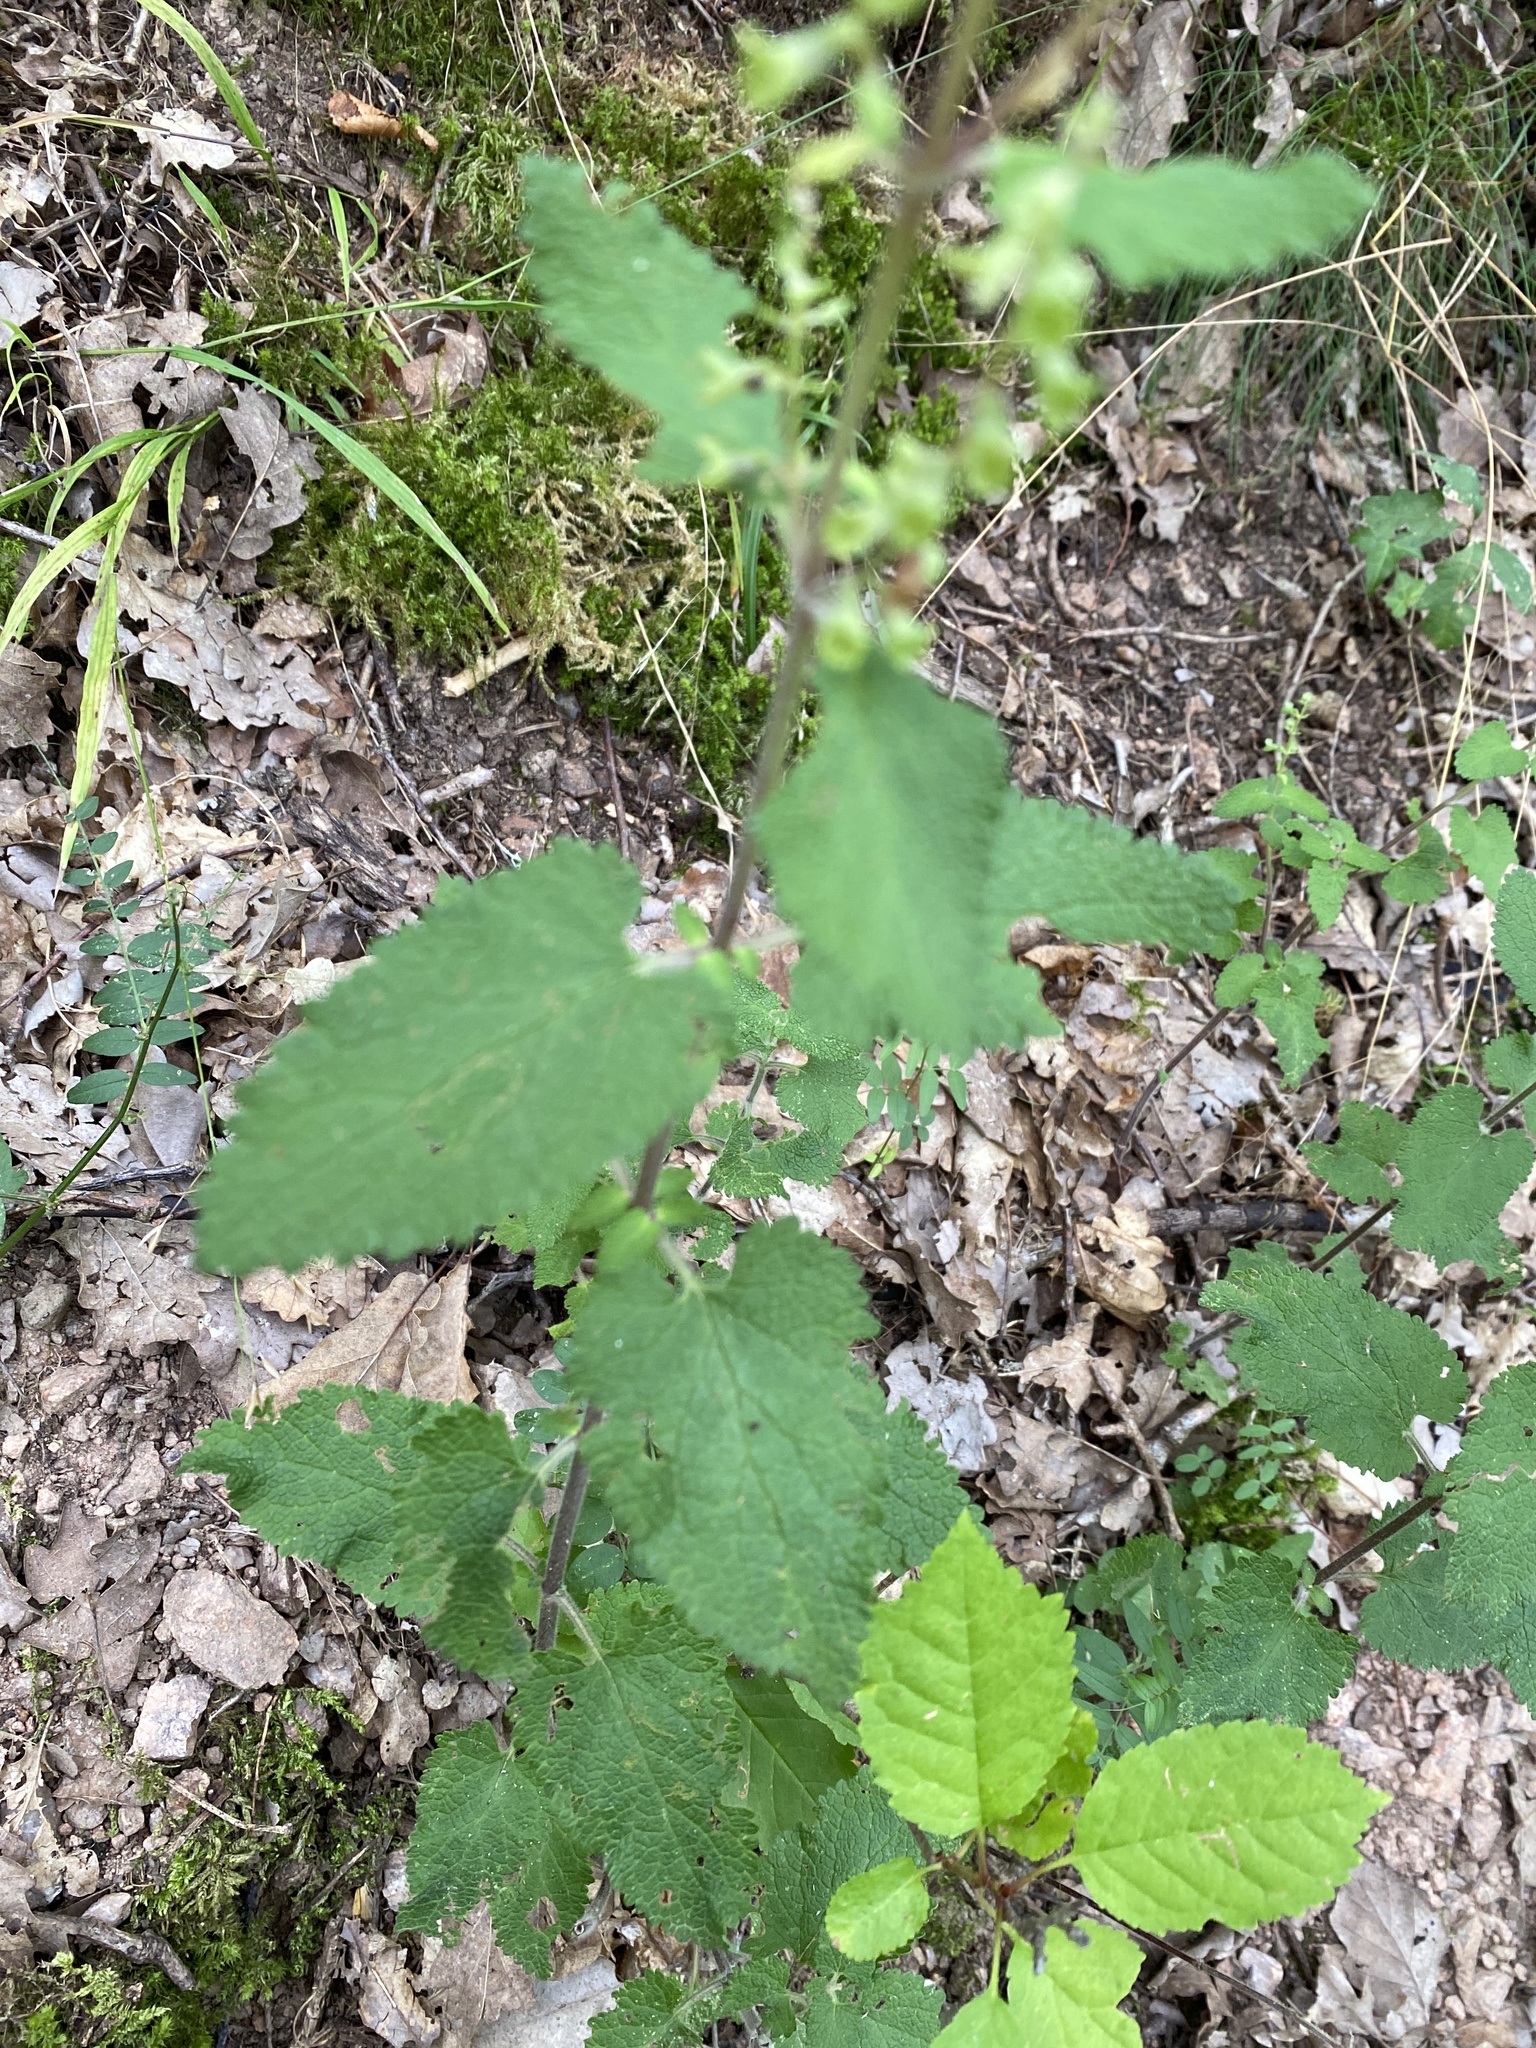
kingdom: Plantae
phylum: Tracheophyta
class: Magnoliopsida
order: Lamiales
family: Lamiaceae
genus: Teucrium
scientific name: Teucrium scorodonia
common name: Woodland germander
